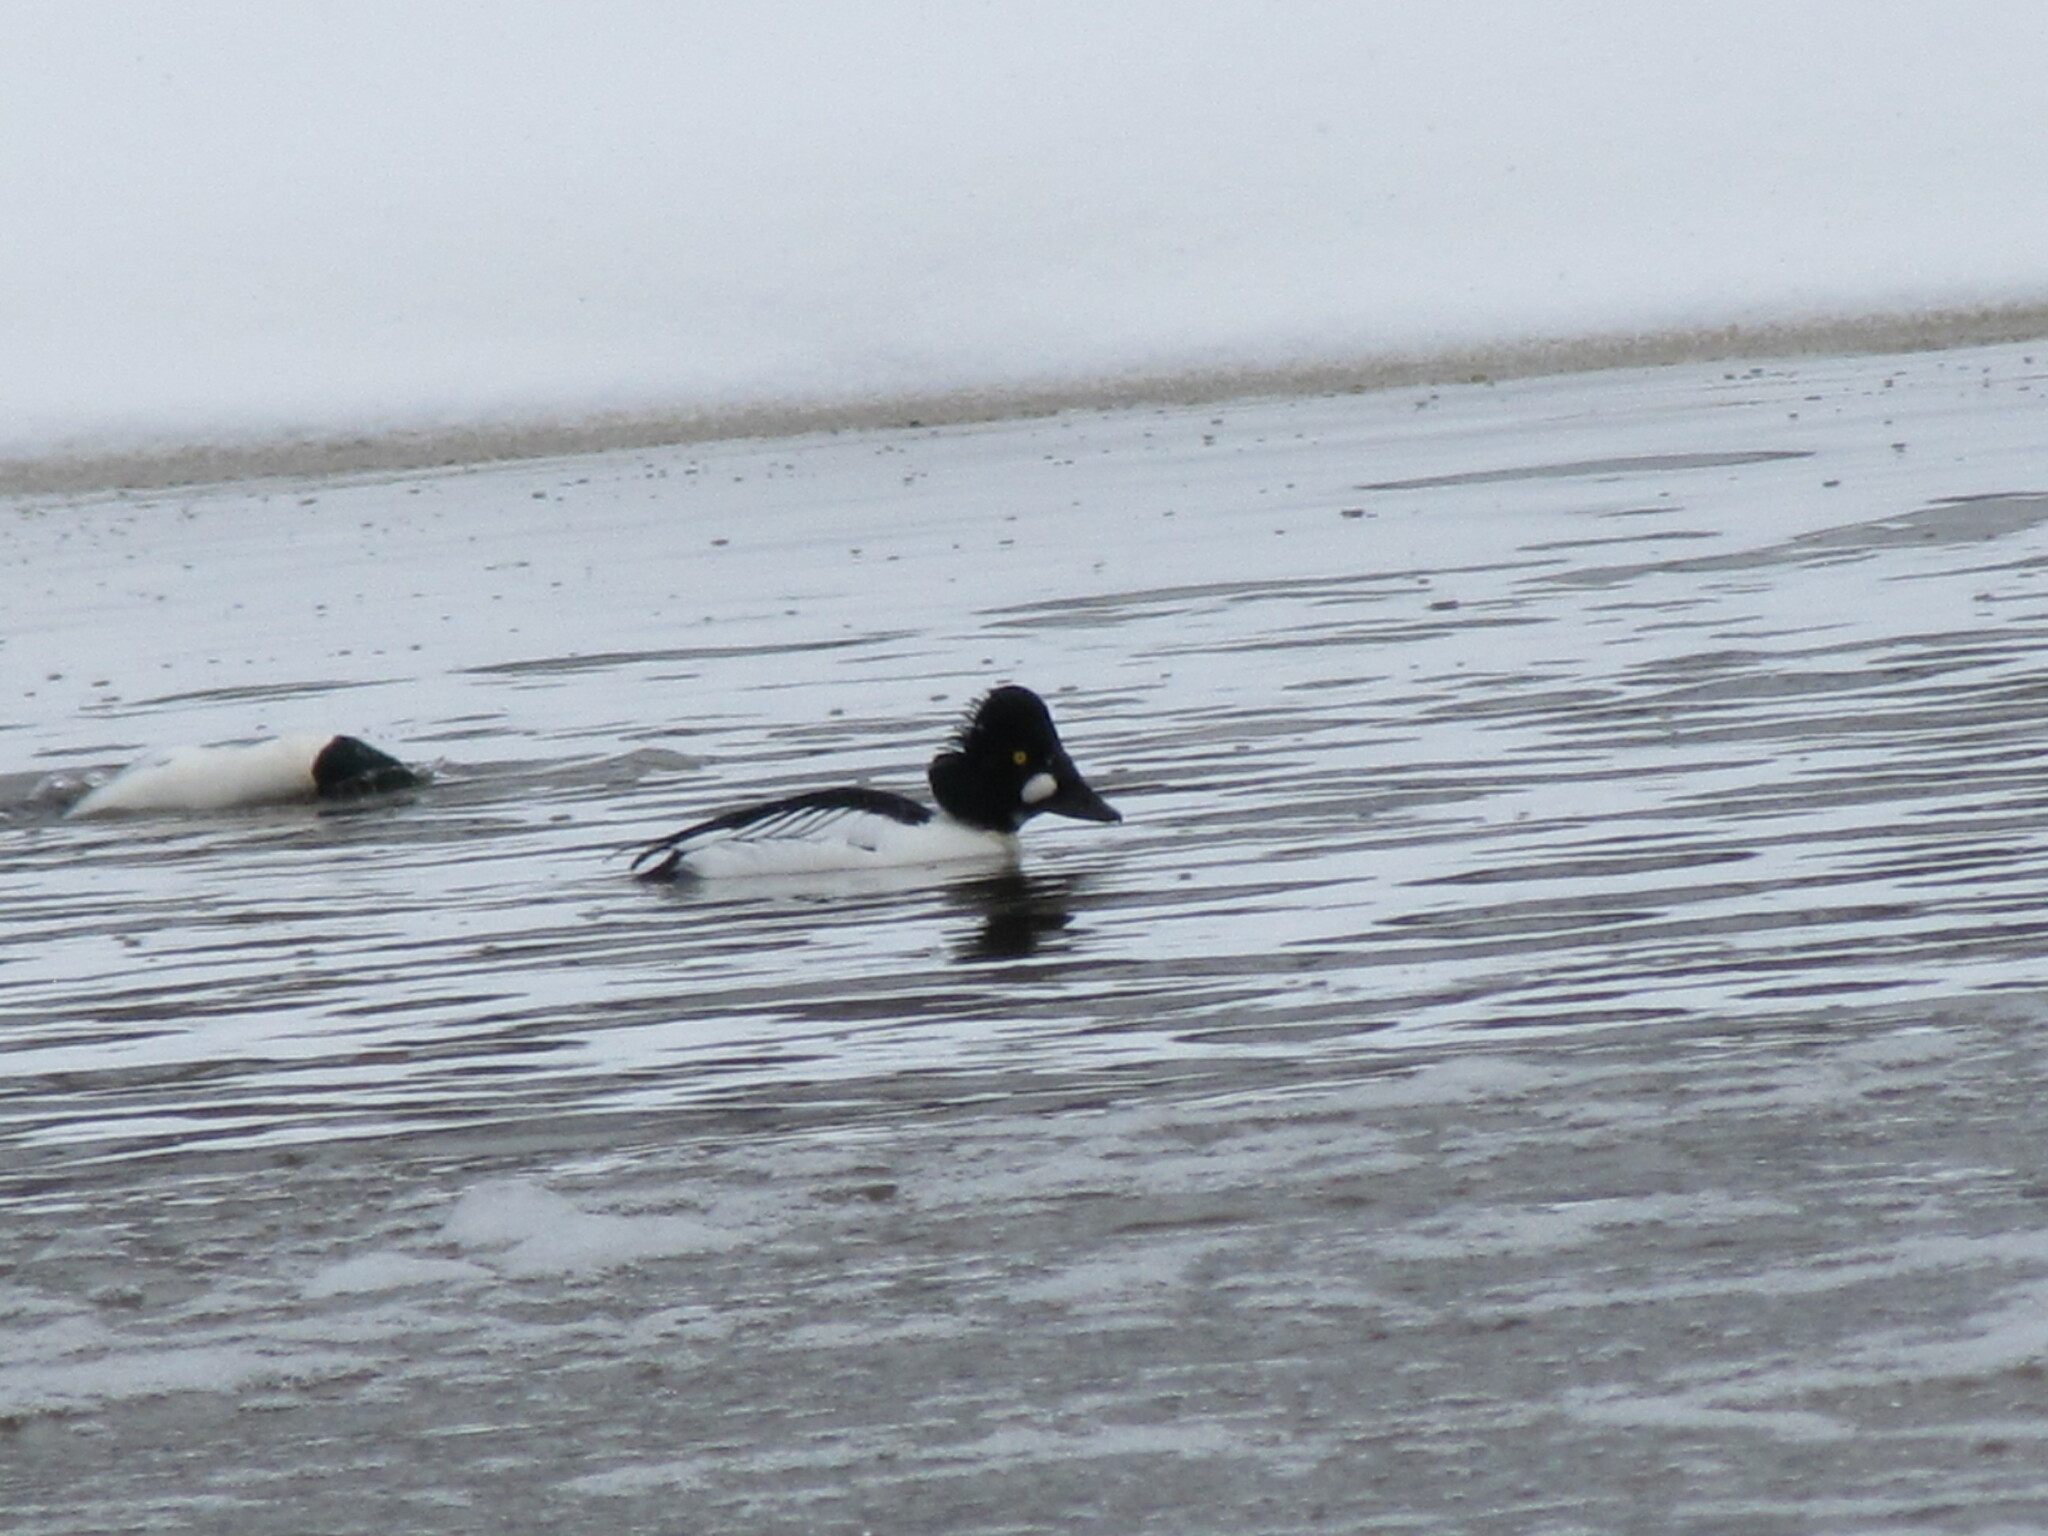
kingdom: Animalia
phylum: Chordata
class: Aves
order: Anseriformes
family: Anatidae
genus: Bucephala
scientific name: Bucephala clangula
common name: Common goldeneye
